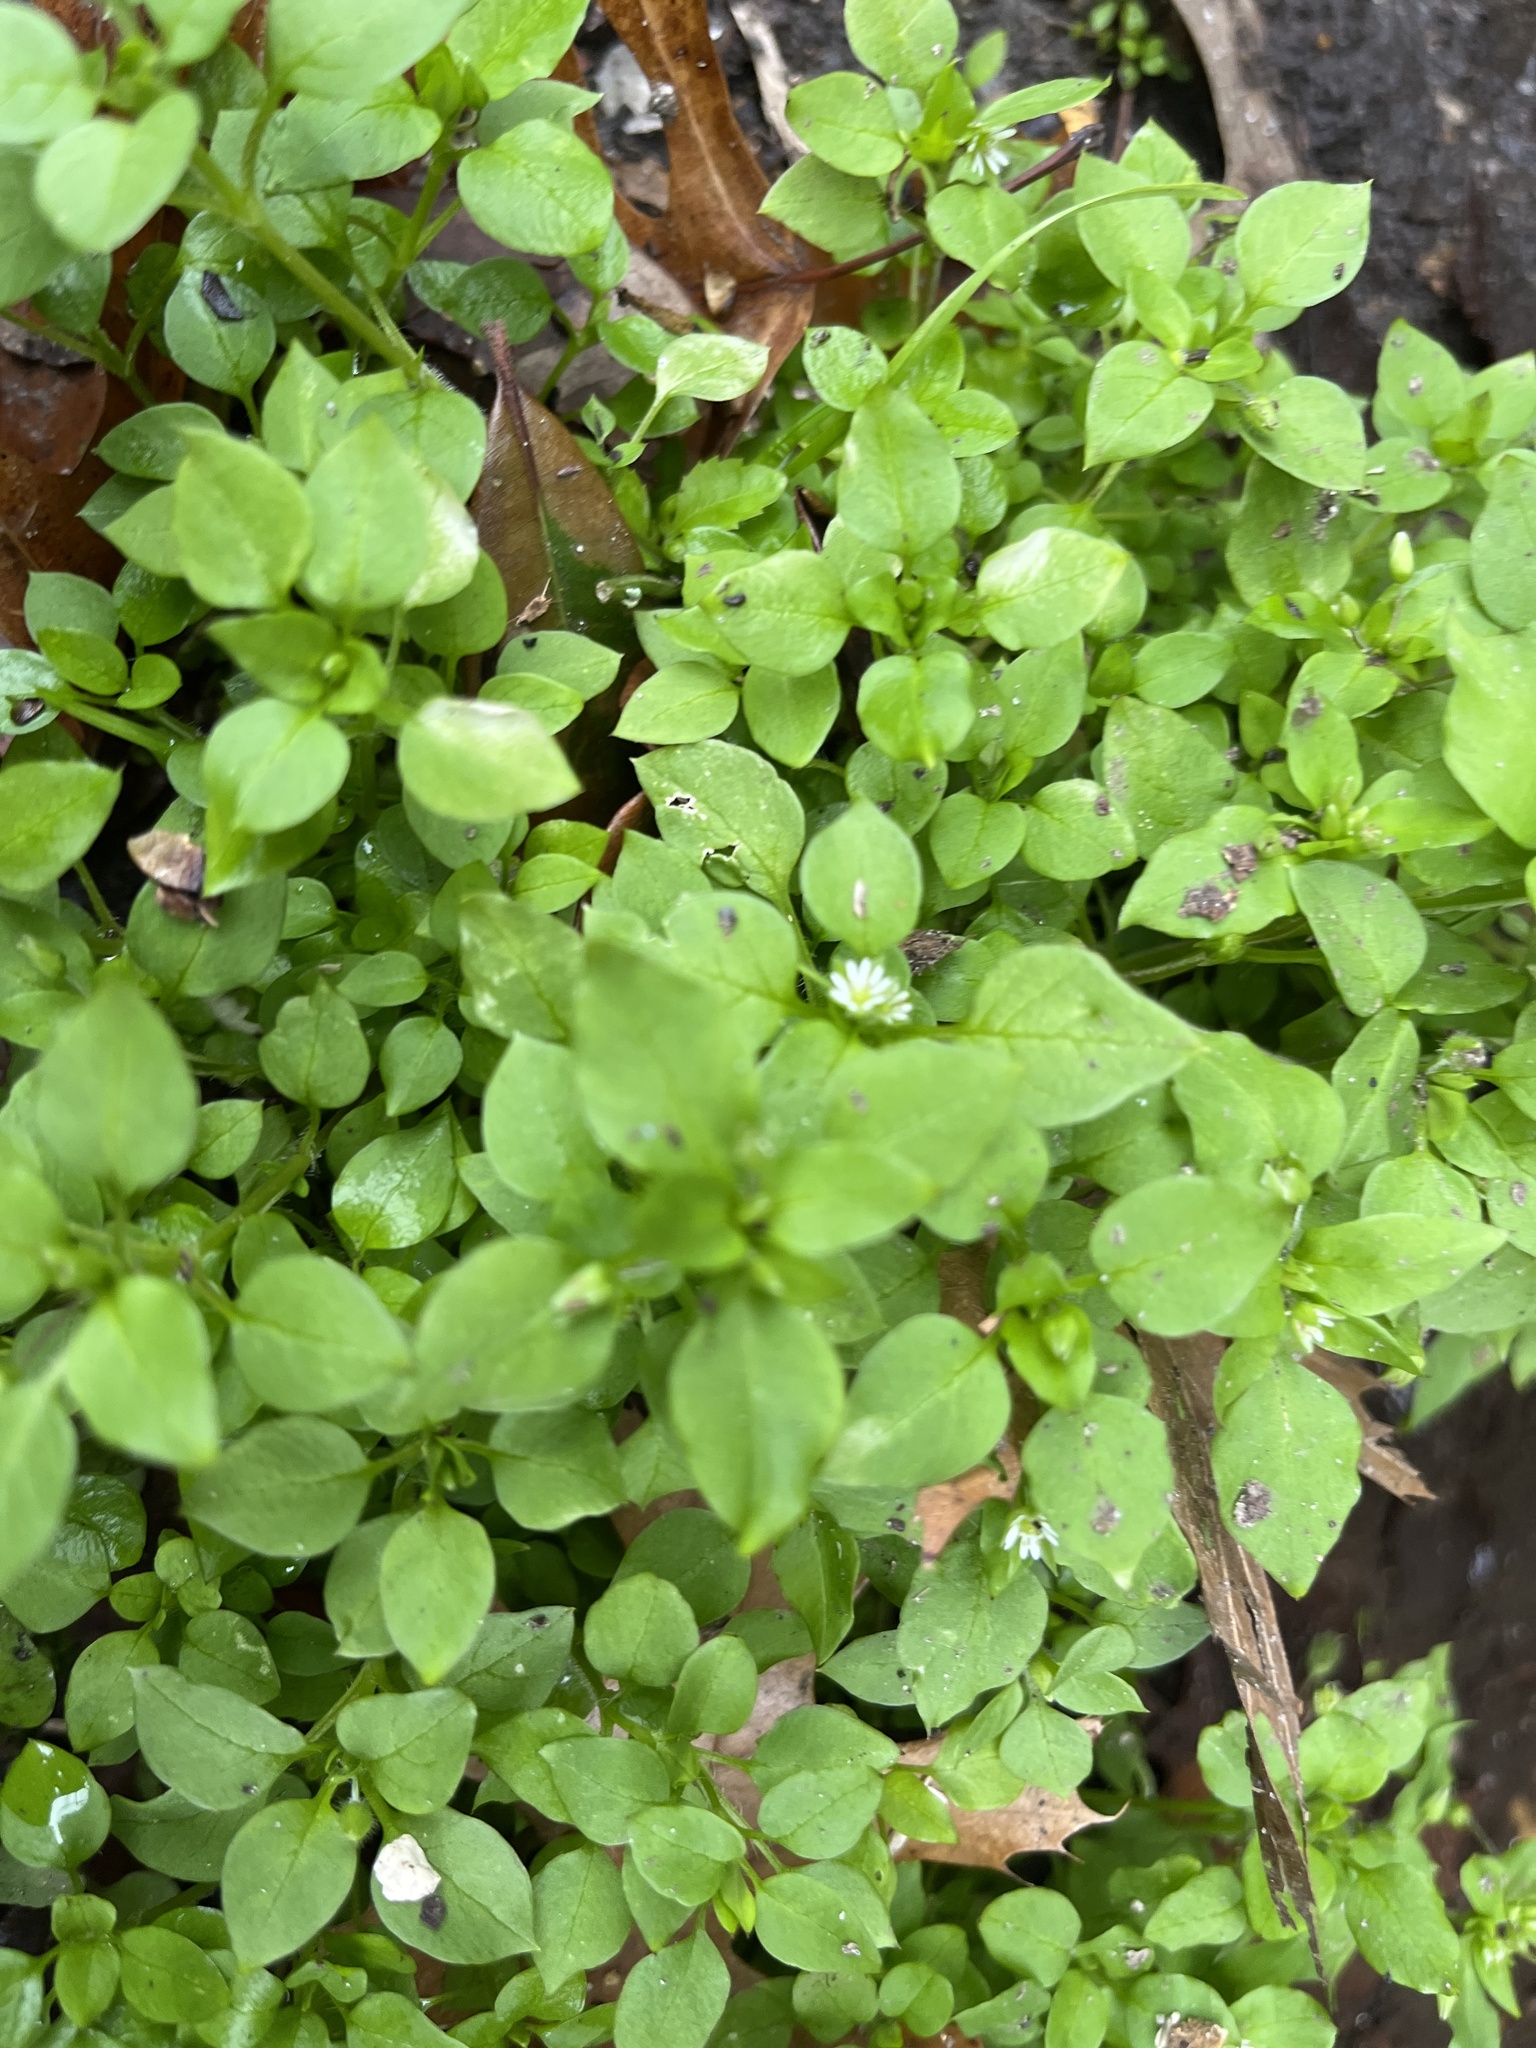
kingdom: Plantae
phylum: Tracheophyta
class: Magnoliopsida
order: Caryophyllales
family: Caryophyllaceae
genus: Stellaria
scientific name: Stellaria media
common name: Common chickweed
